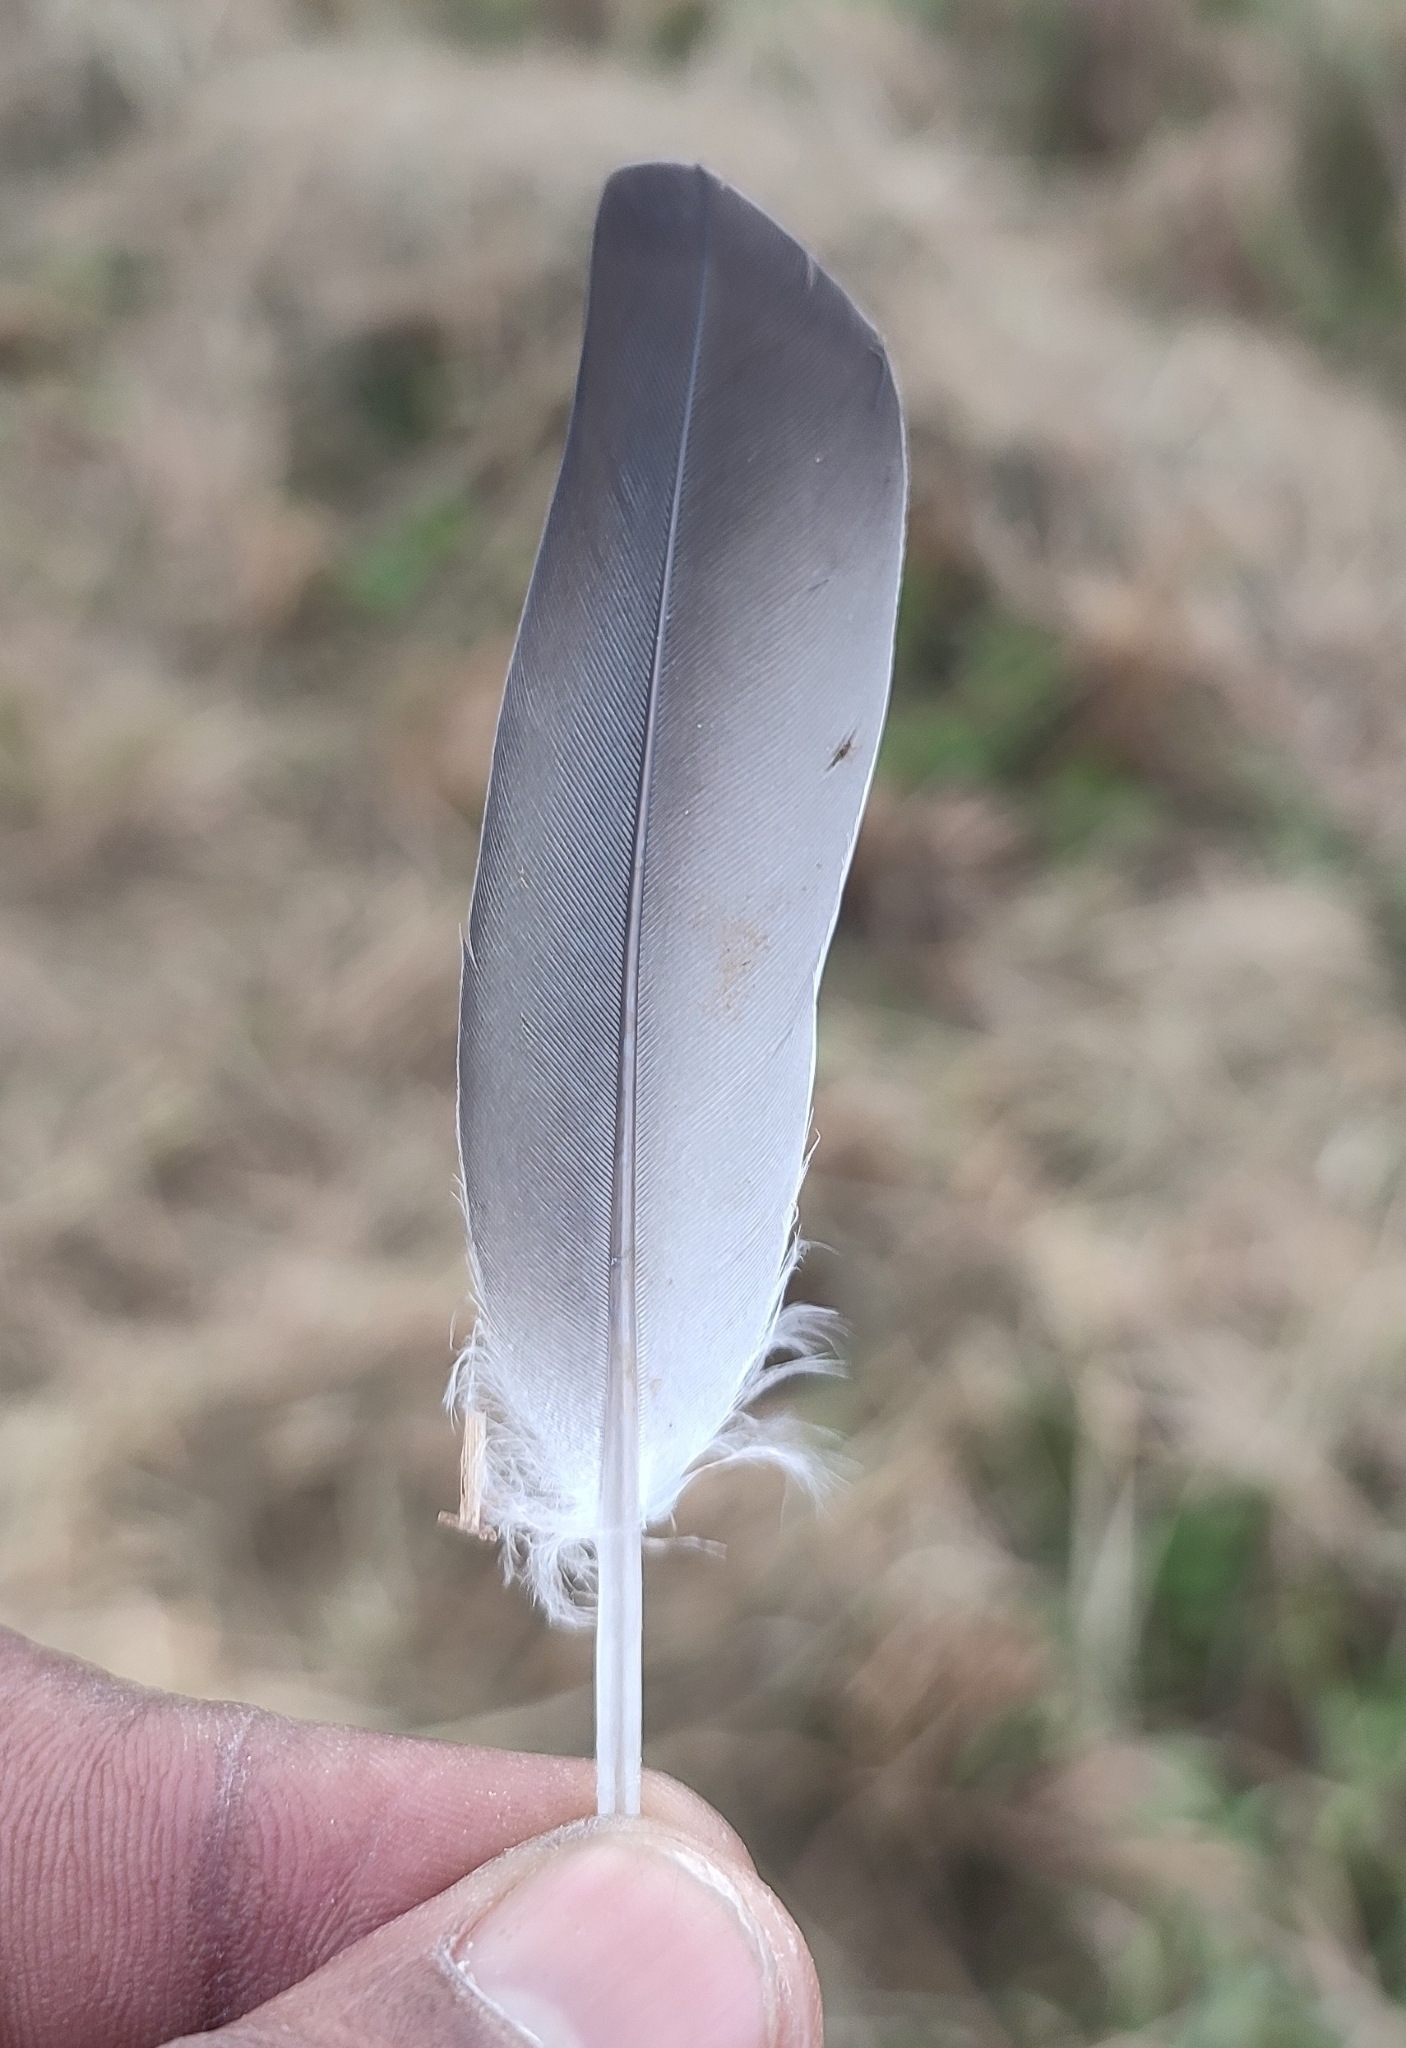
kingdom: Animalia
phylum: Chordata
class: Aves
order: Columbiformes
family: Columbidae
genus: Columba
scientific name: Columba livia
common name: Rock pigeon
